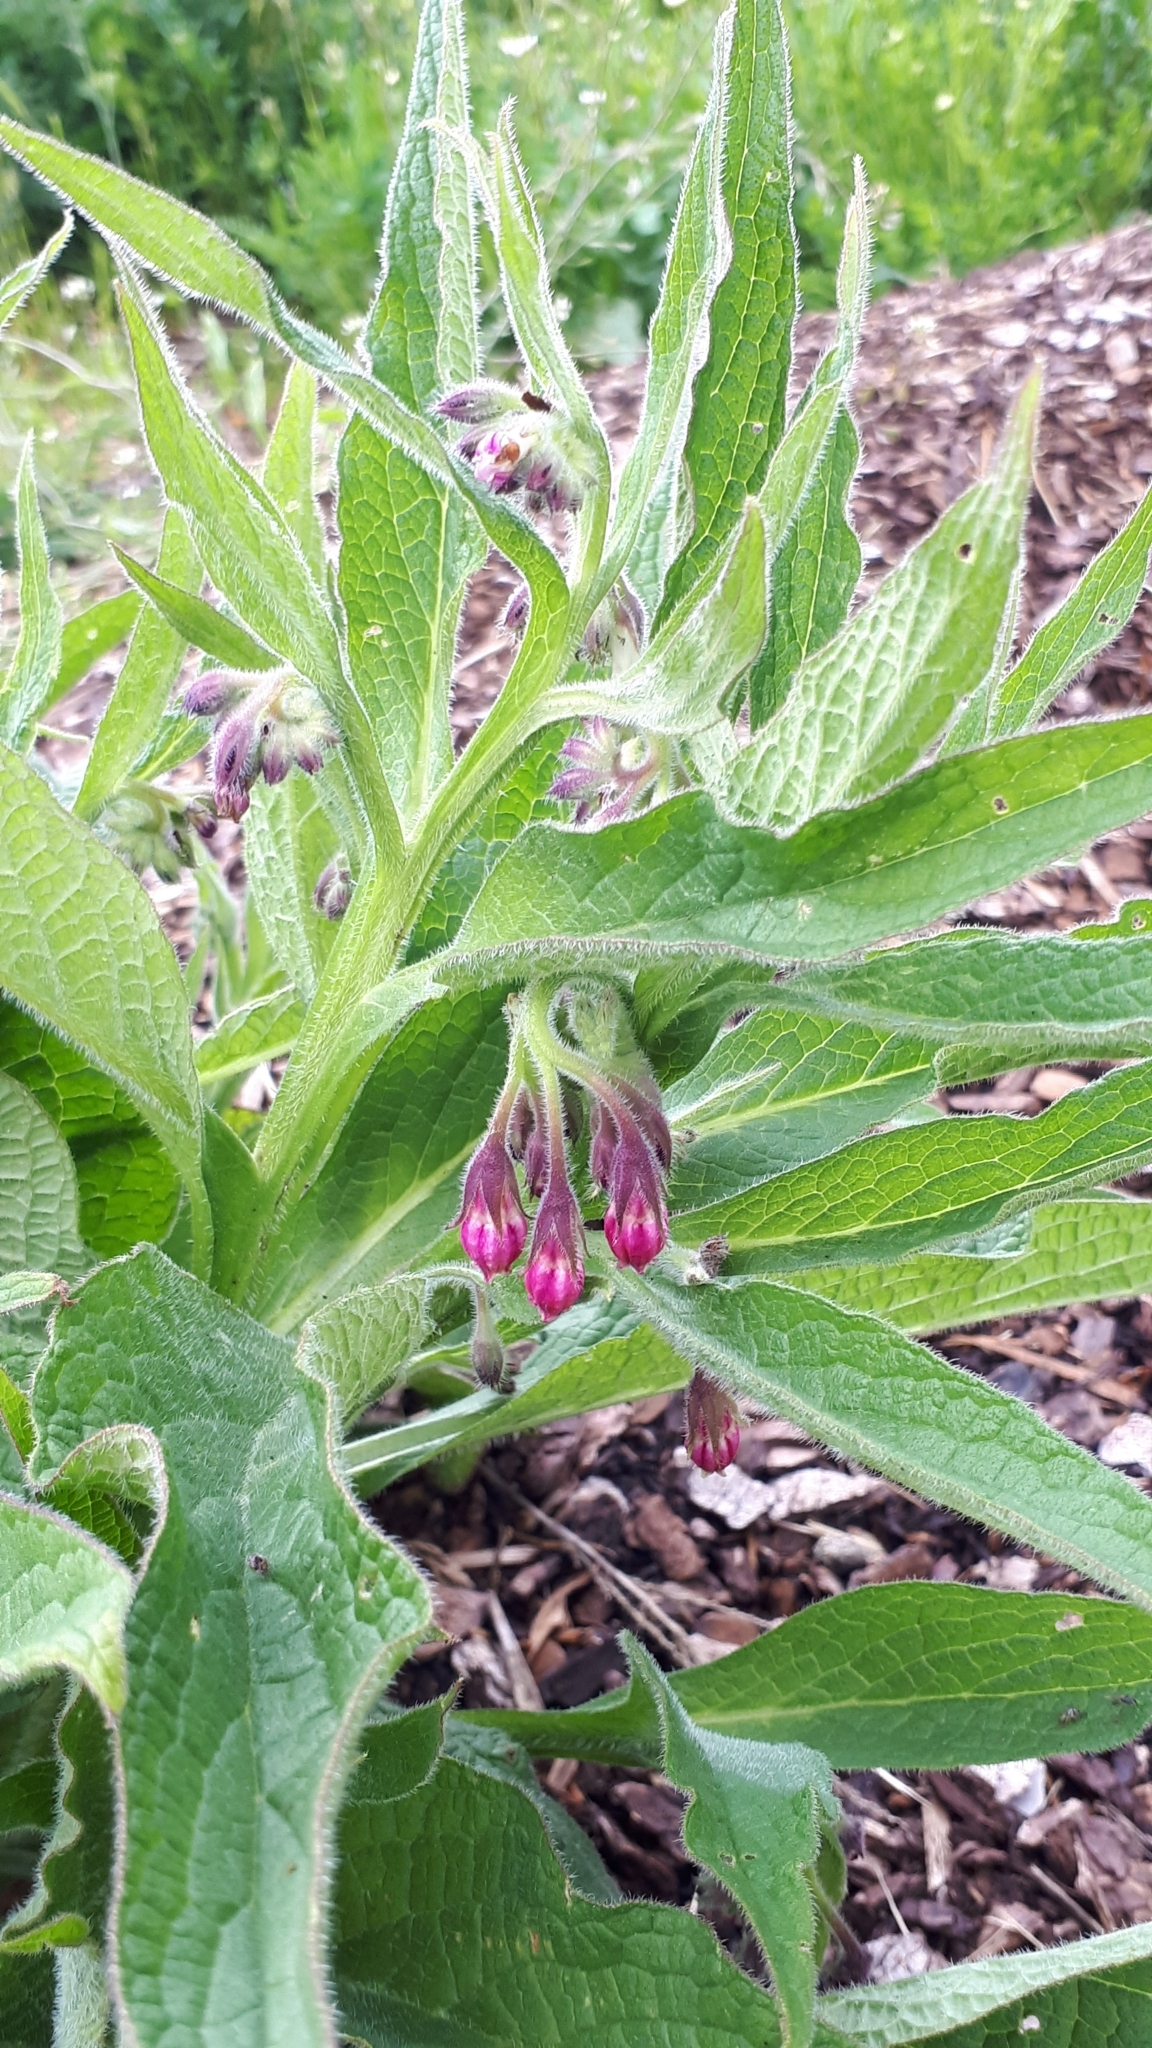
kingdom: Plantae
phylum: Tracheophyta
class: Magnoliopsida
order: Boraginales
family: Boraginaceae
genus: Symphytum
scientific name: Symphytum officinale
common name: Common comfrey
